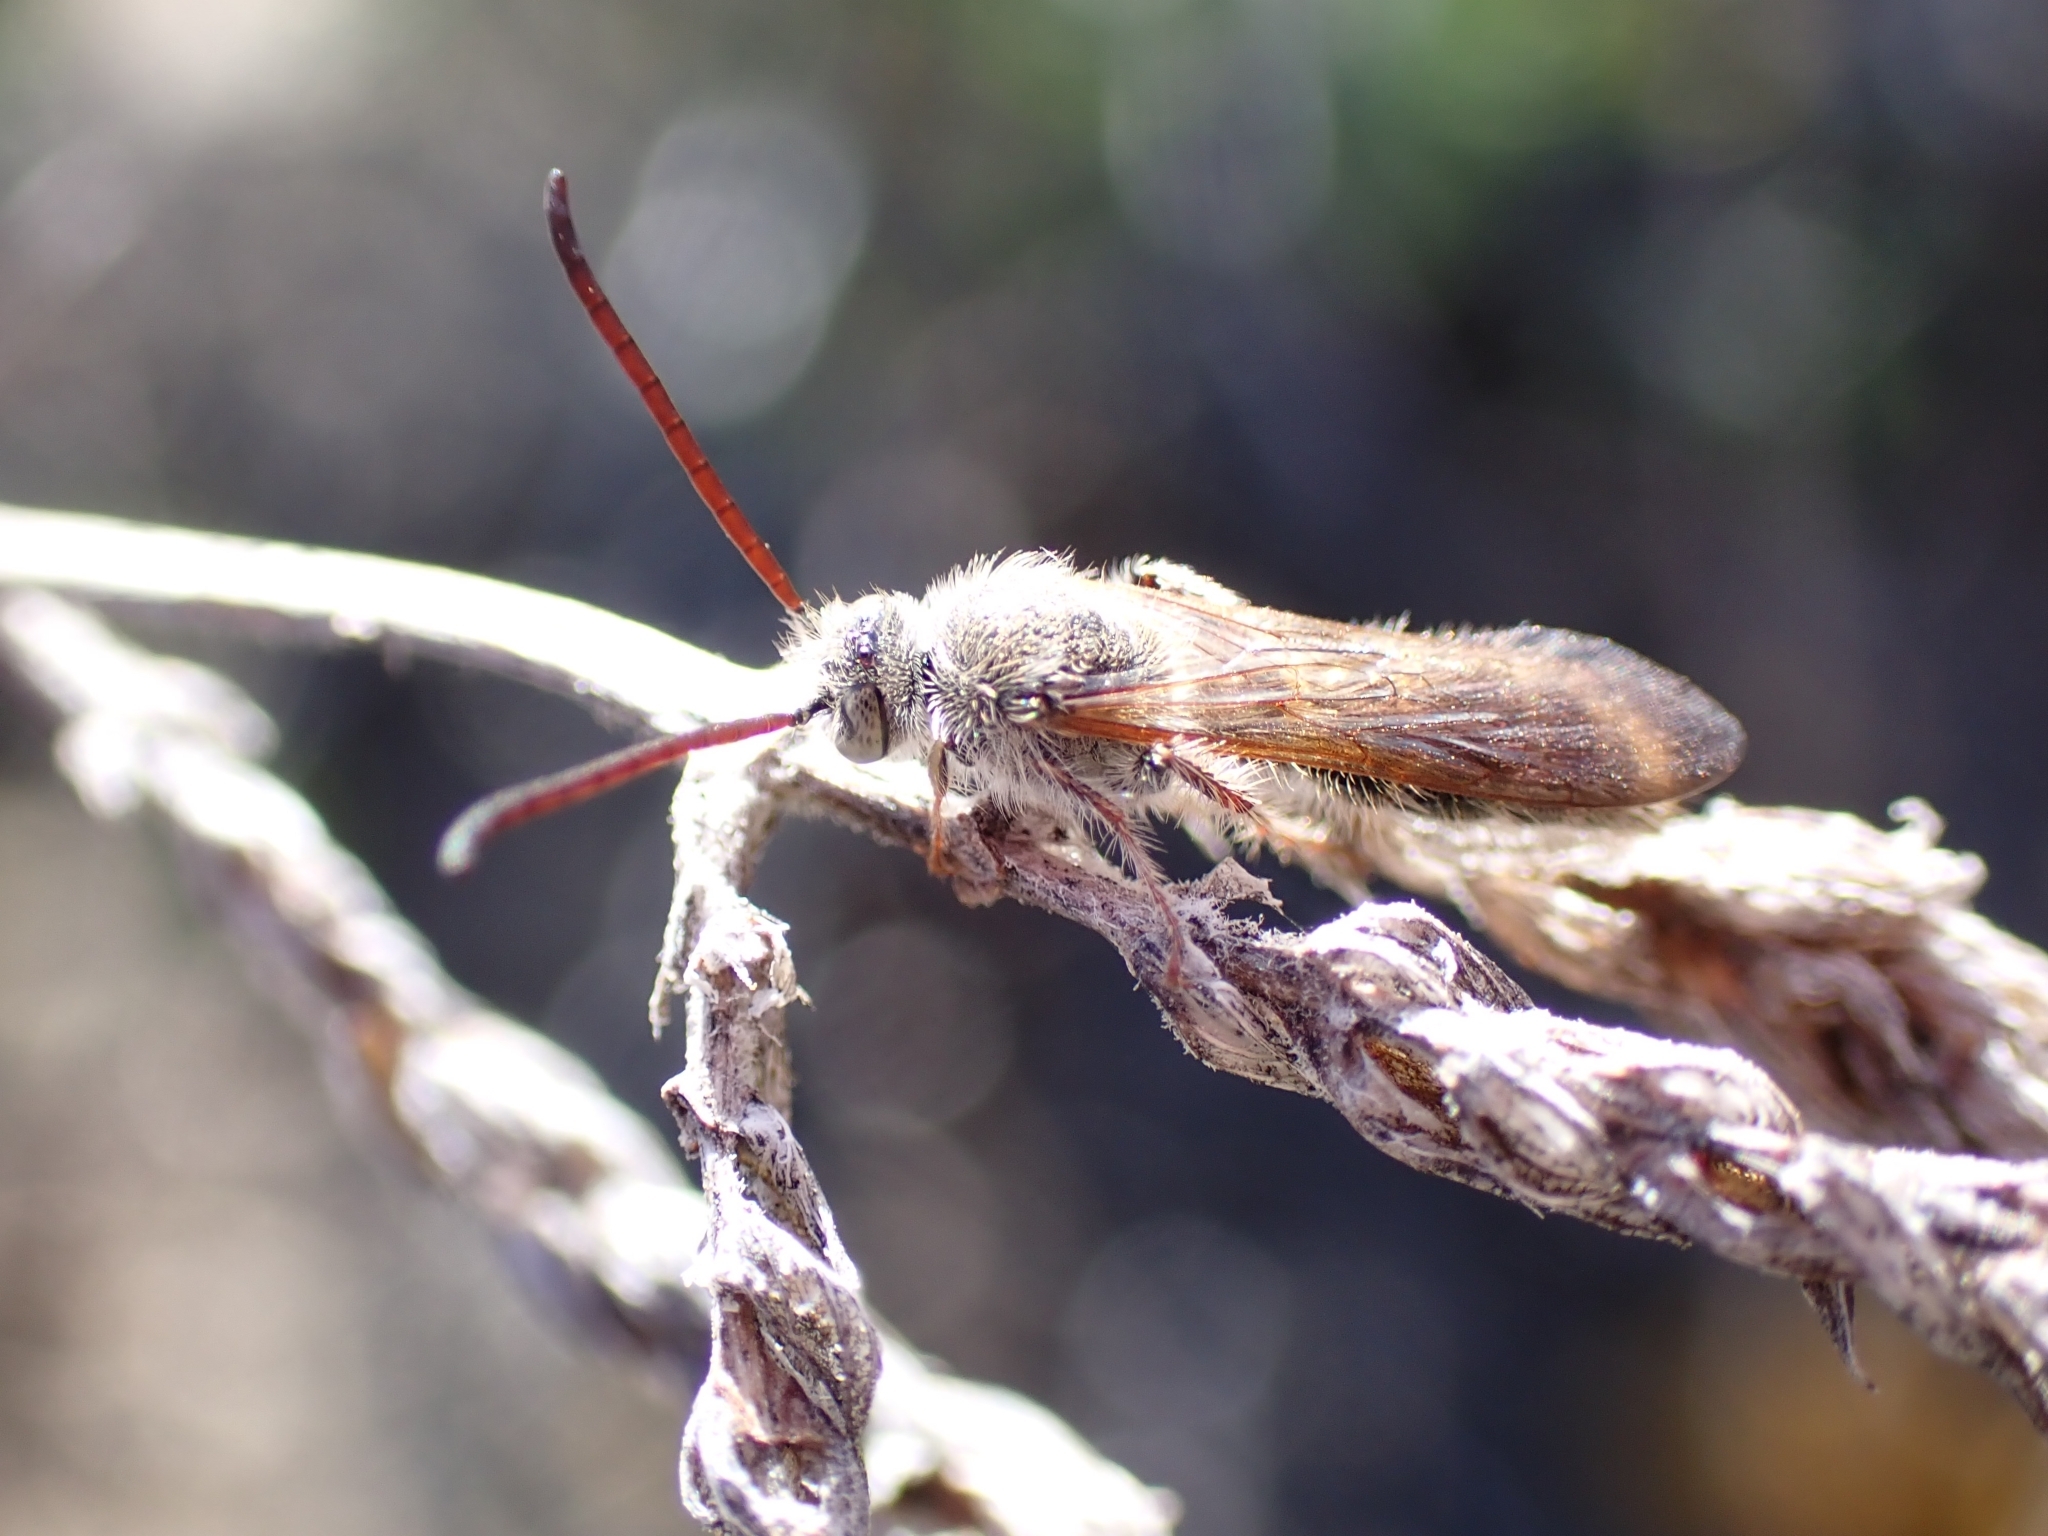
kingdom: Animalia
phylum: Arthropoda
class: Insecta
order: Hymenoptera
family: Scoliidae
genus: Micromeriella
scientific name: Micromeriella hyalina
